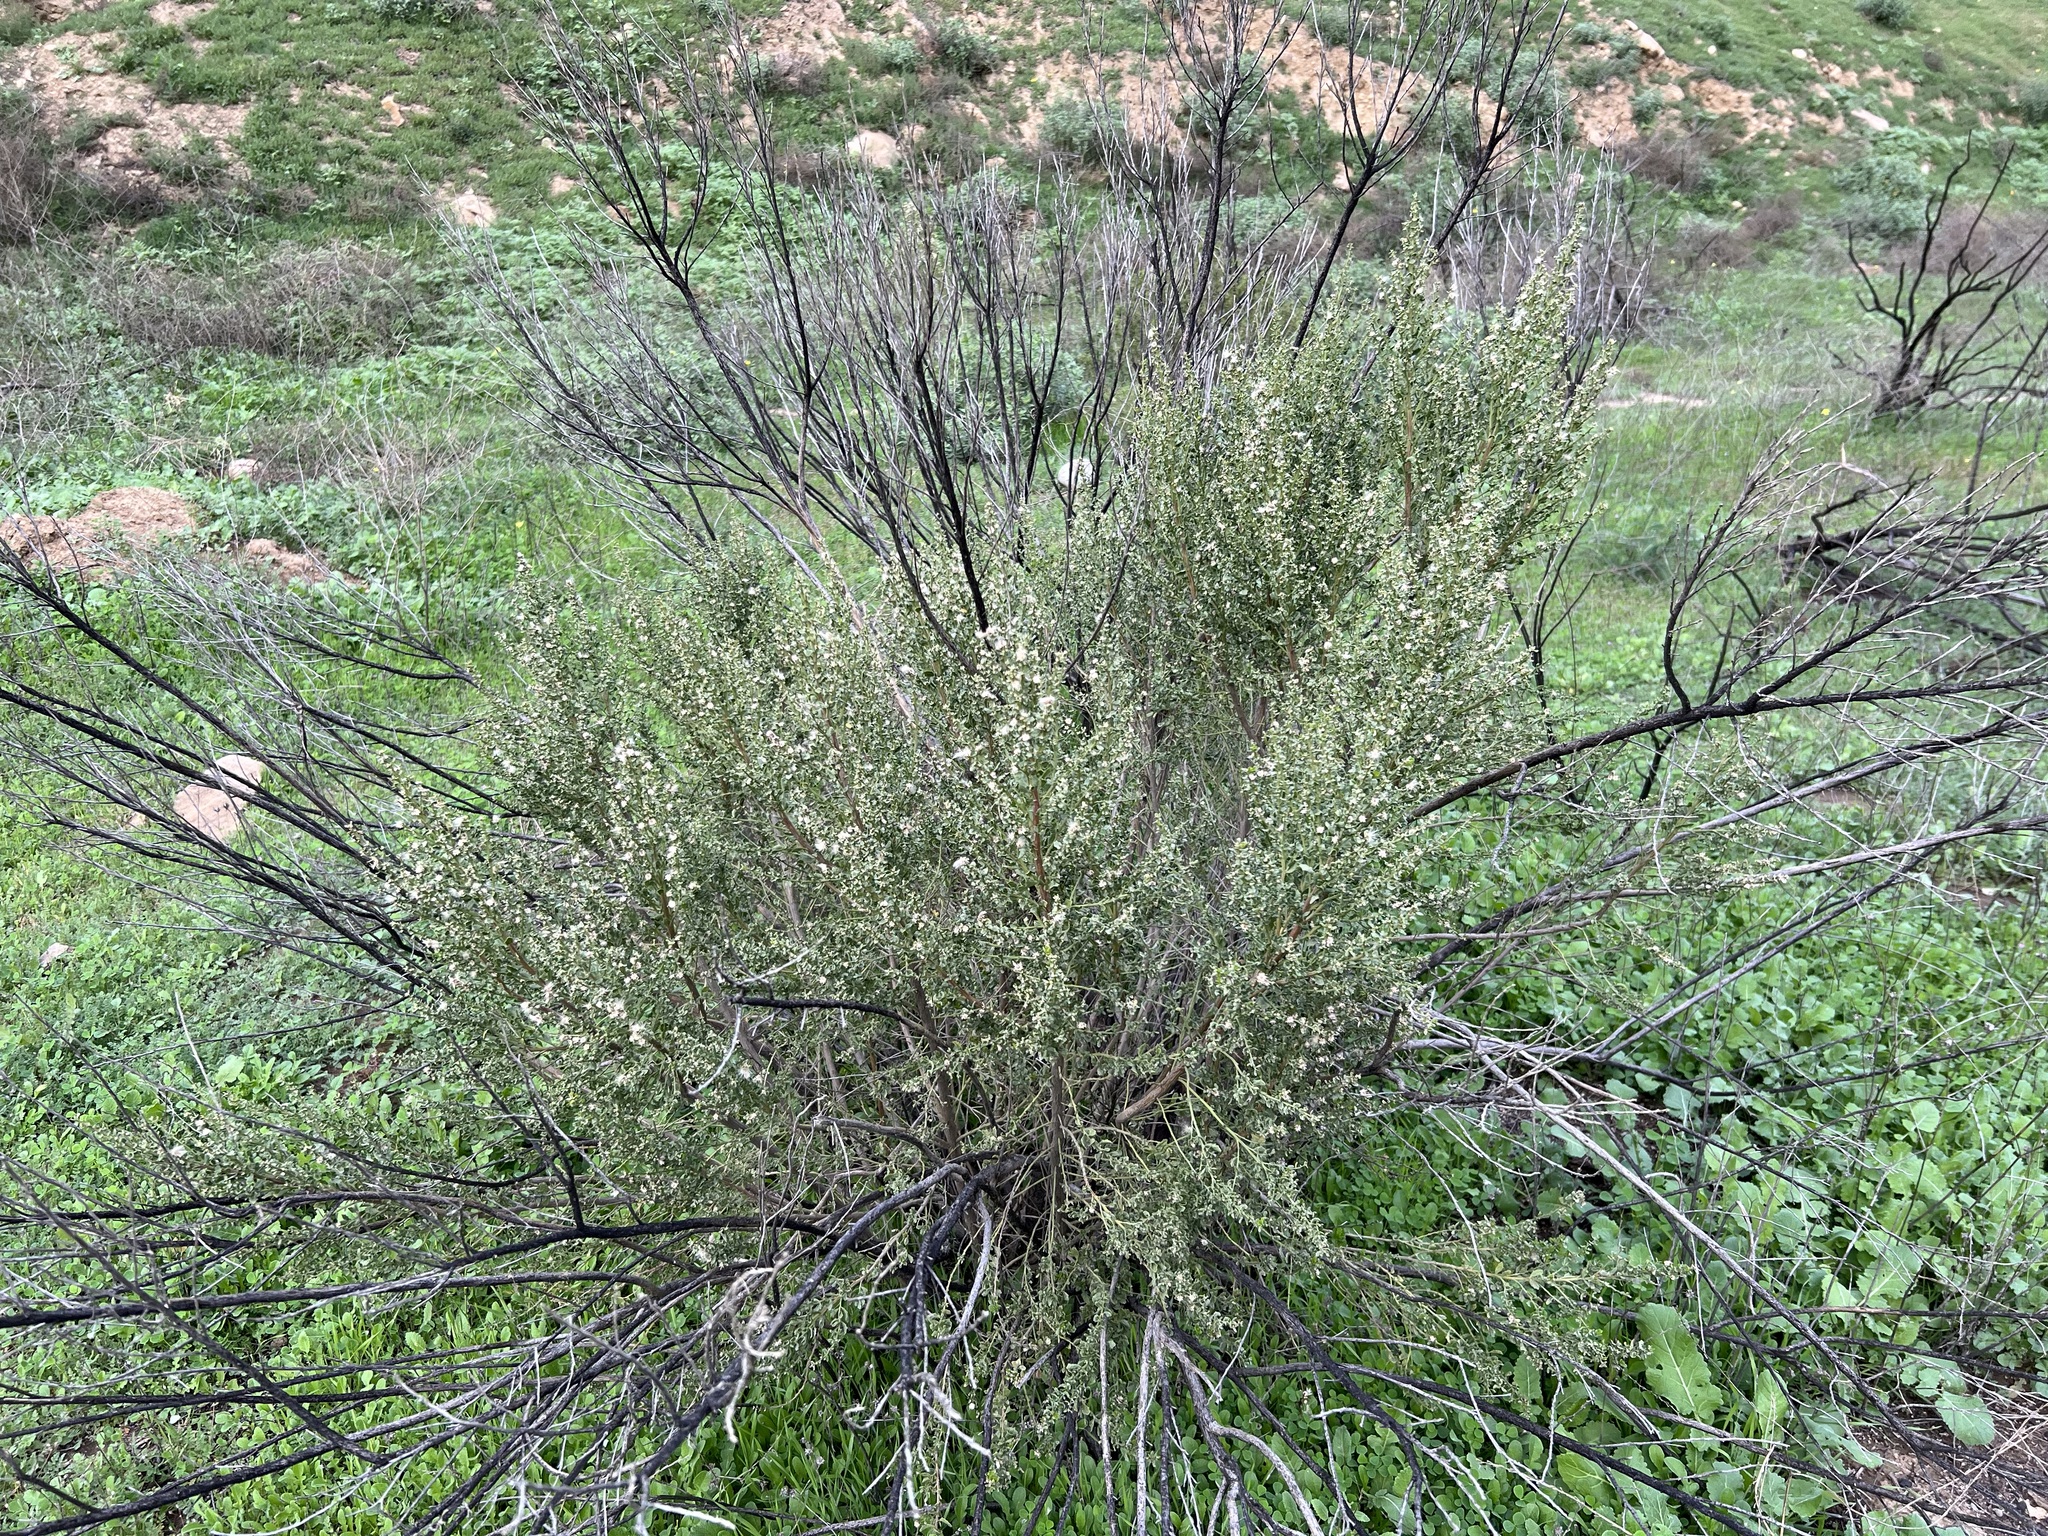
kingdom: Plantae
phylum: Tracheophyta
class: Magnoliopsida
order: Asterales
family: Asteraceae
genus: Baccharis
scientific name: Baccharis pilularis
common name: Coyotebrush
